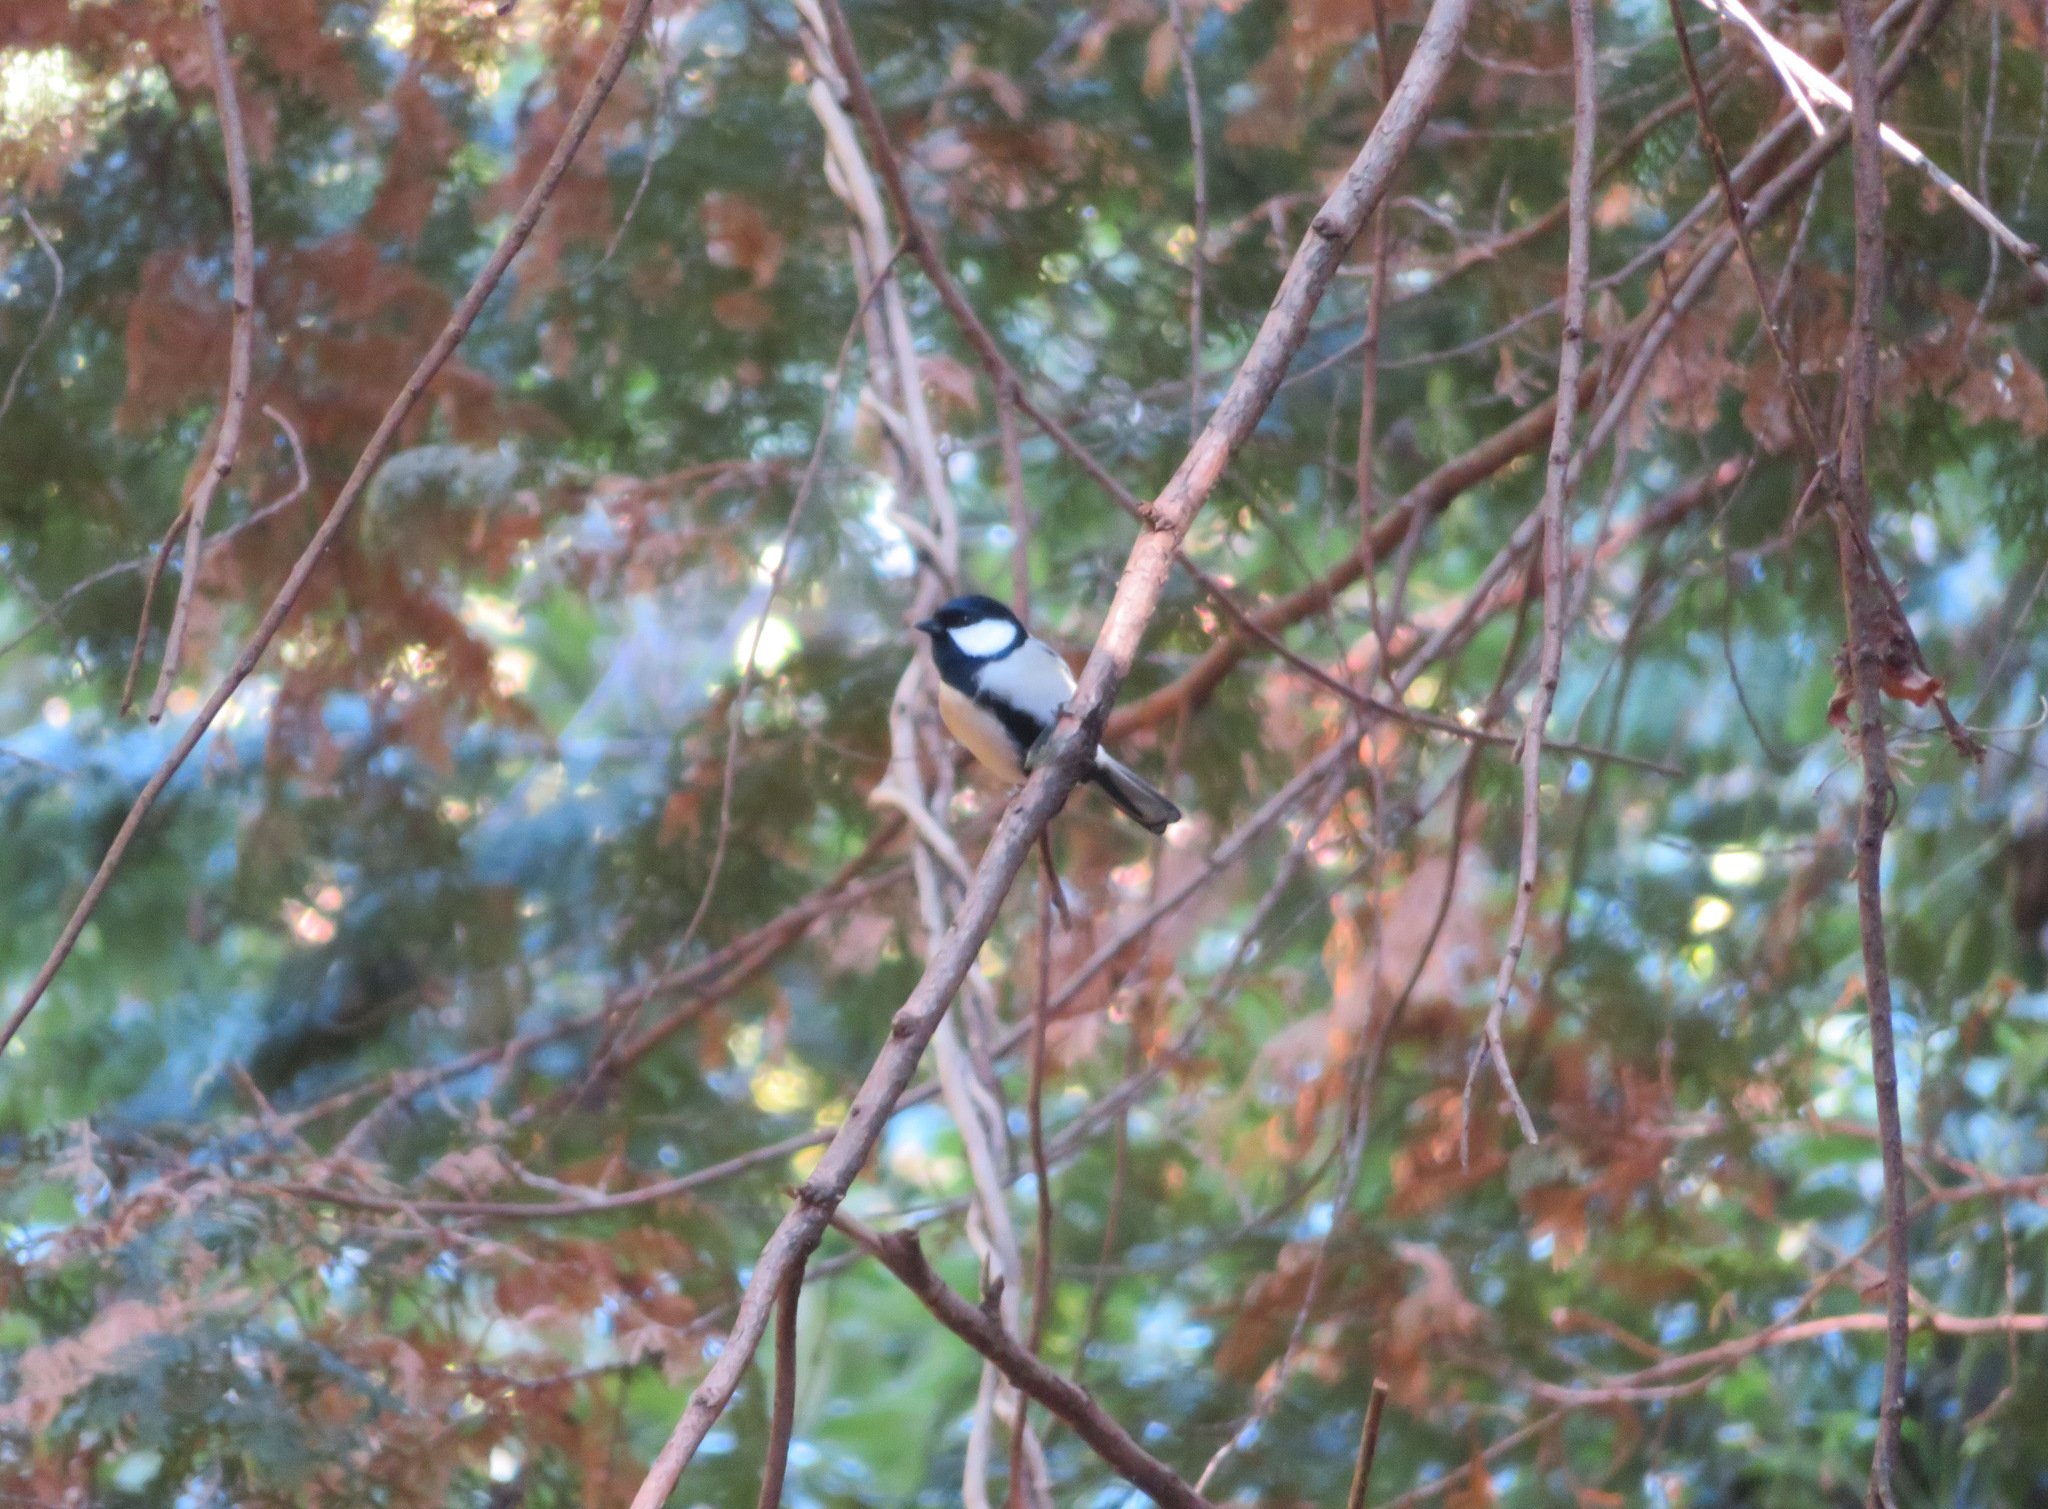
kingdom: Animalia
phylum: Chordata
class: Aves
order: Passeriformes
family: Paridae
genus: Parus
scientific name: Parus minor
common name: Japanese tit
